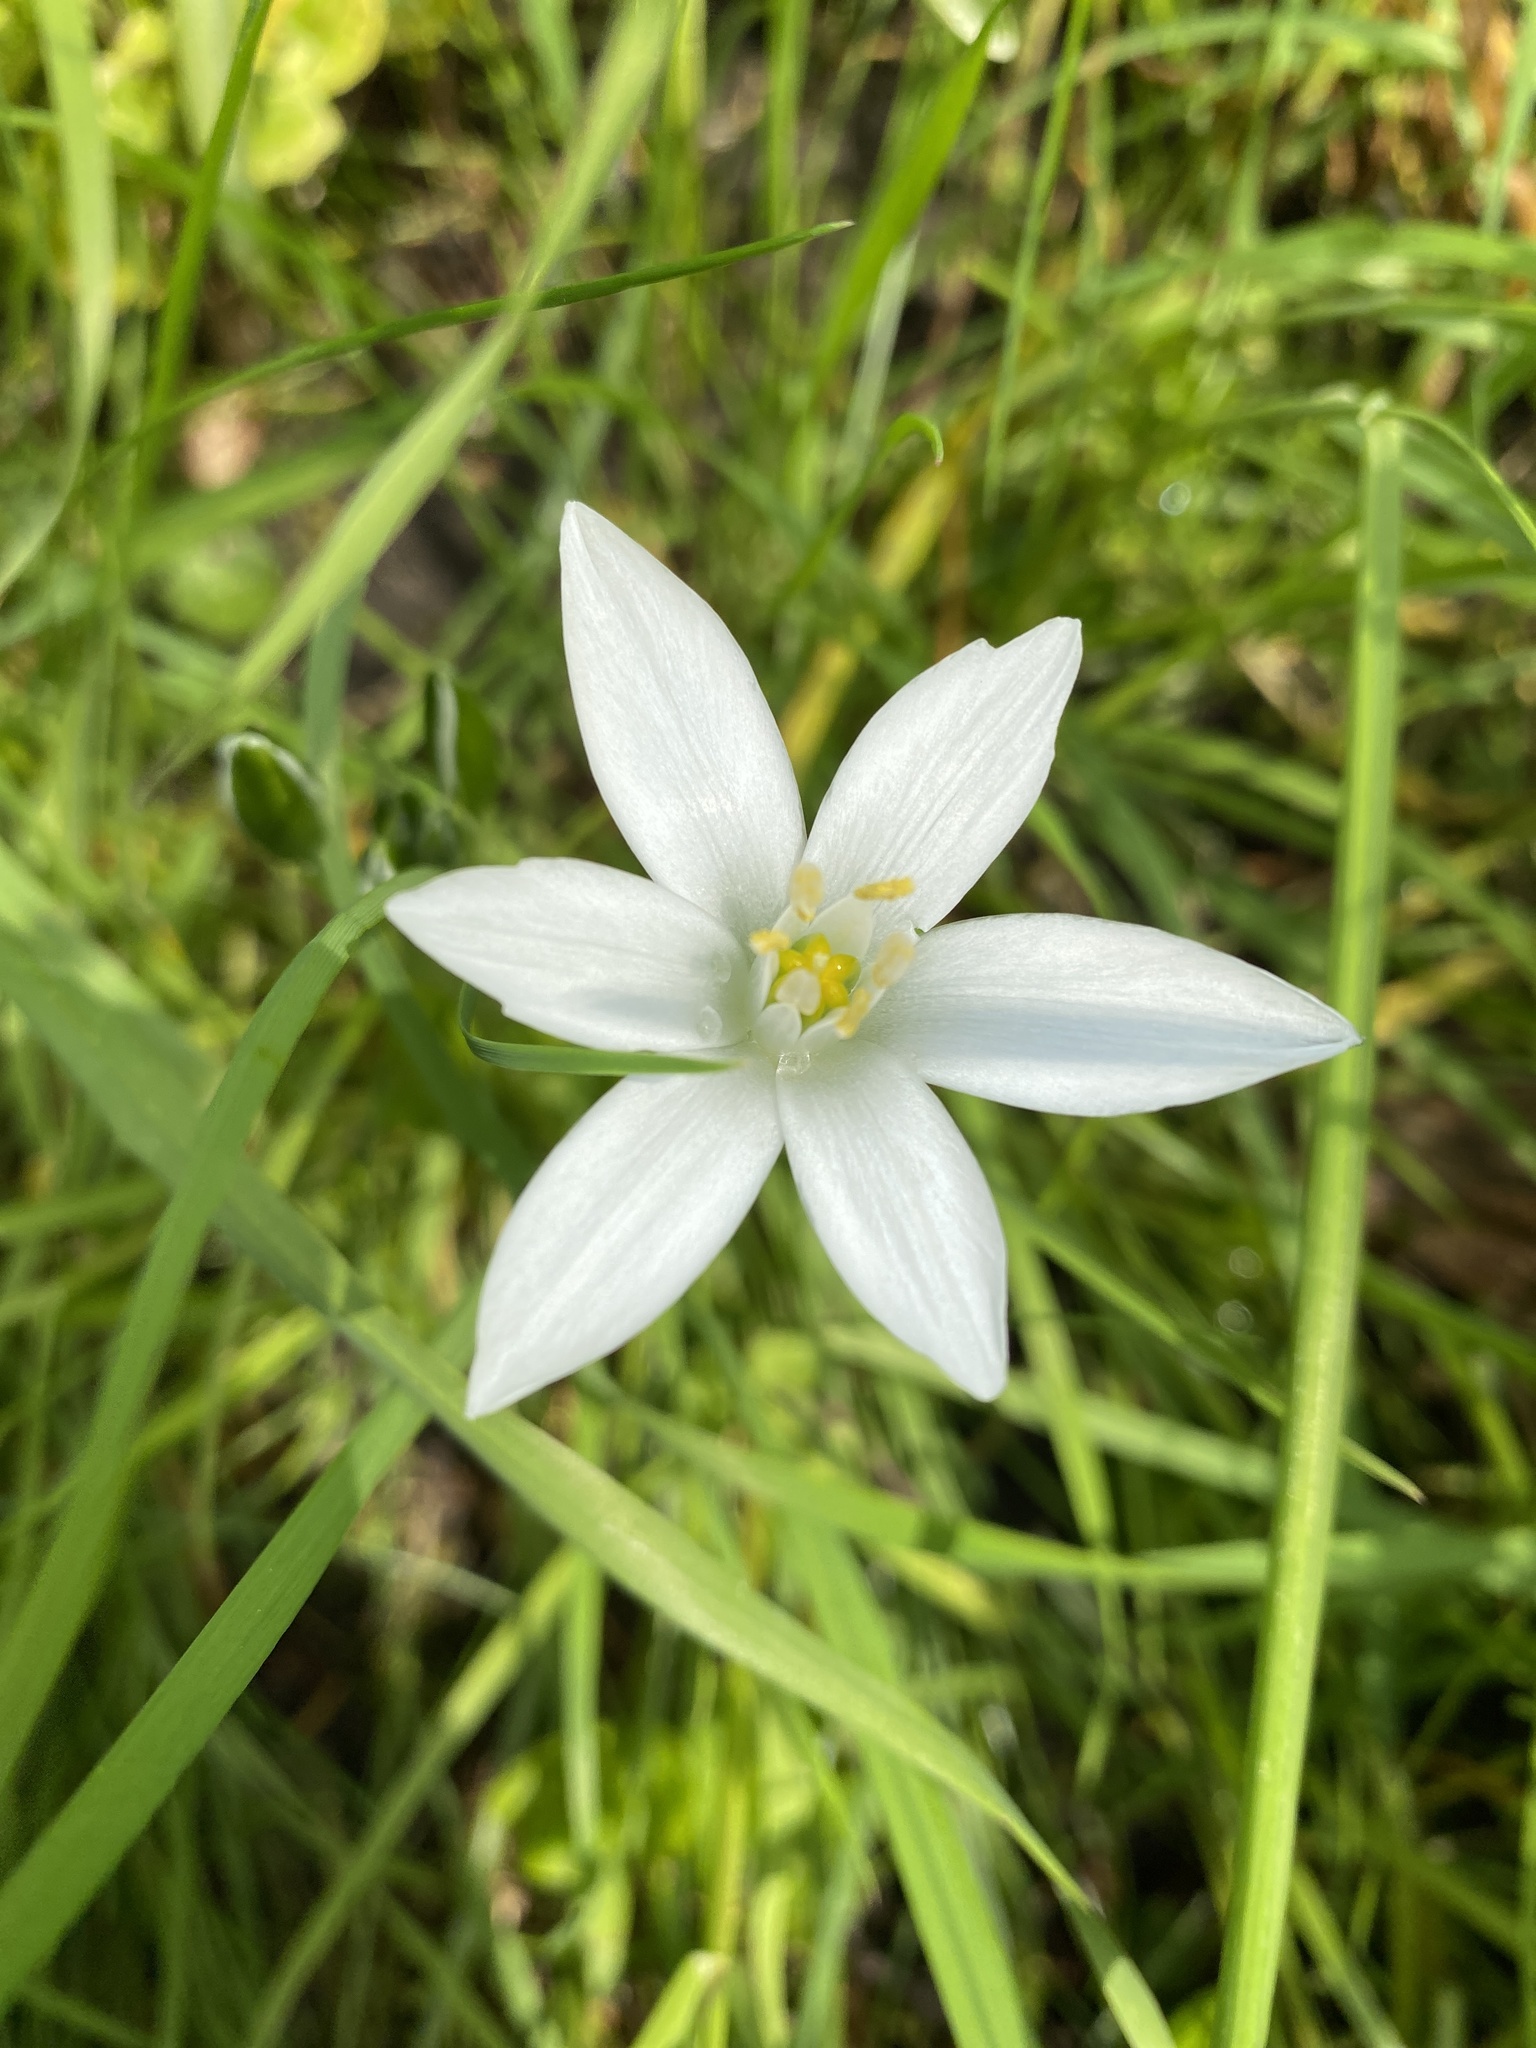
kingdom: Plantae
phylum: Tracheophyta
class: Liliopsida
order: Asparagales
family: Asparagaceae
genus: Ornithogalum
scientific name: Ornithogalum umbellatum
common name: Garden star-of-bethlehem
